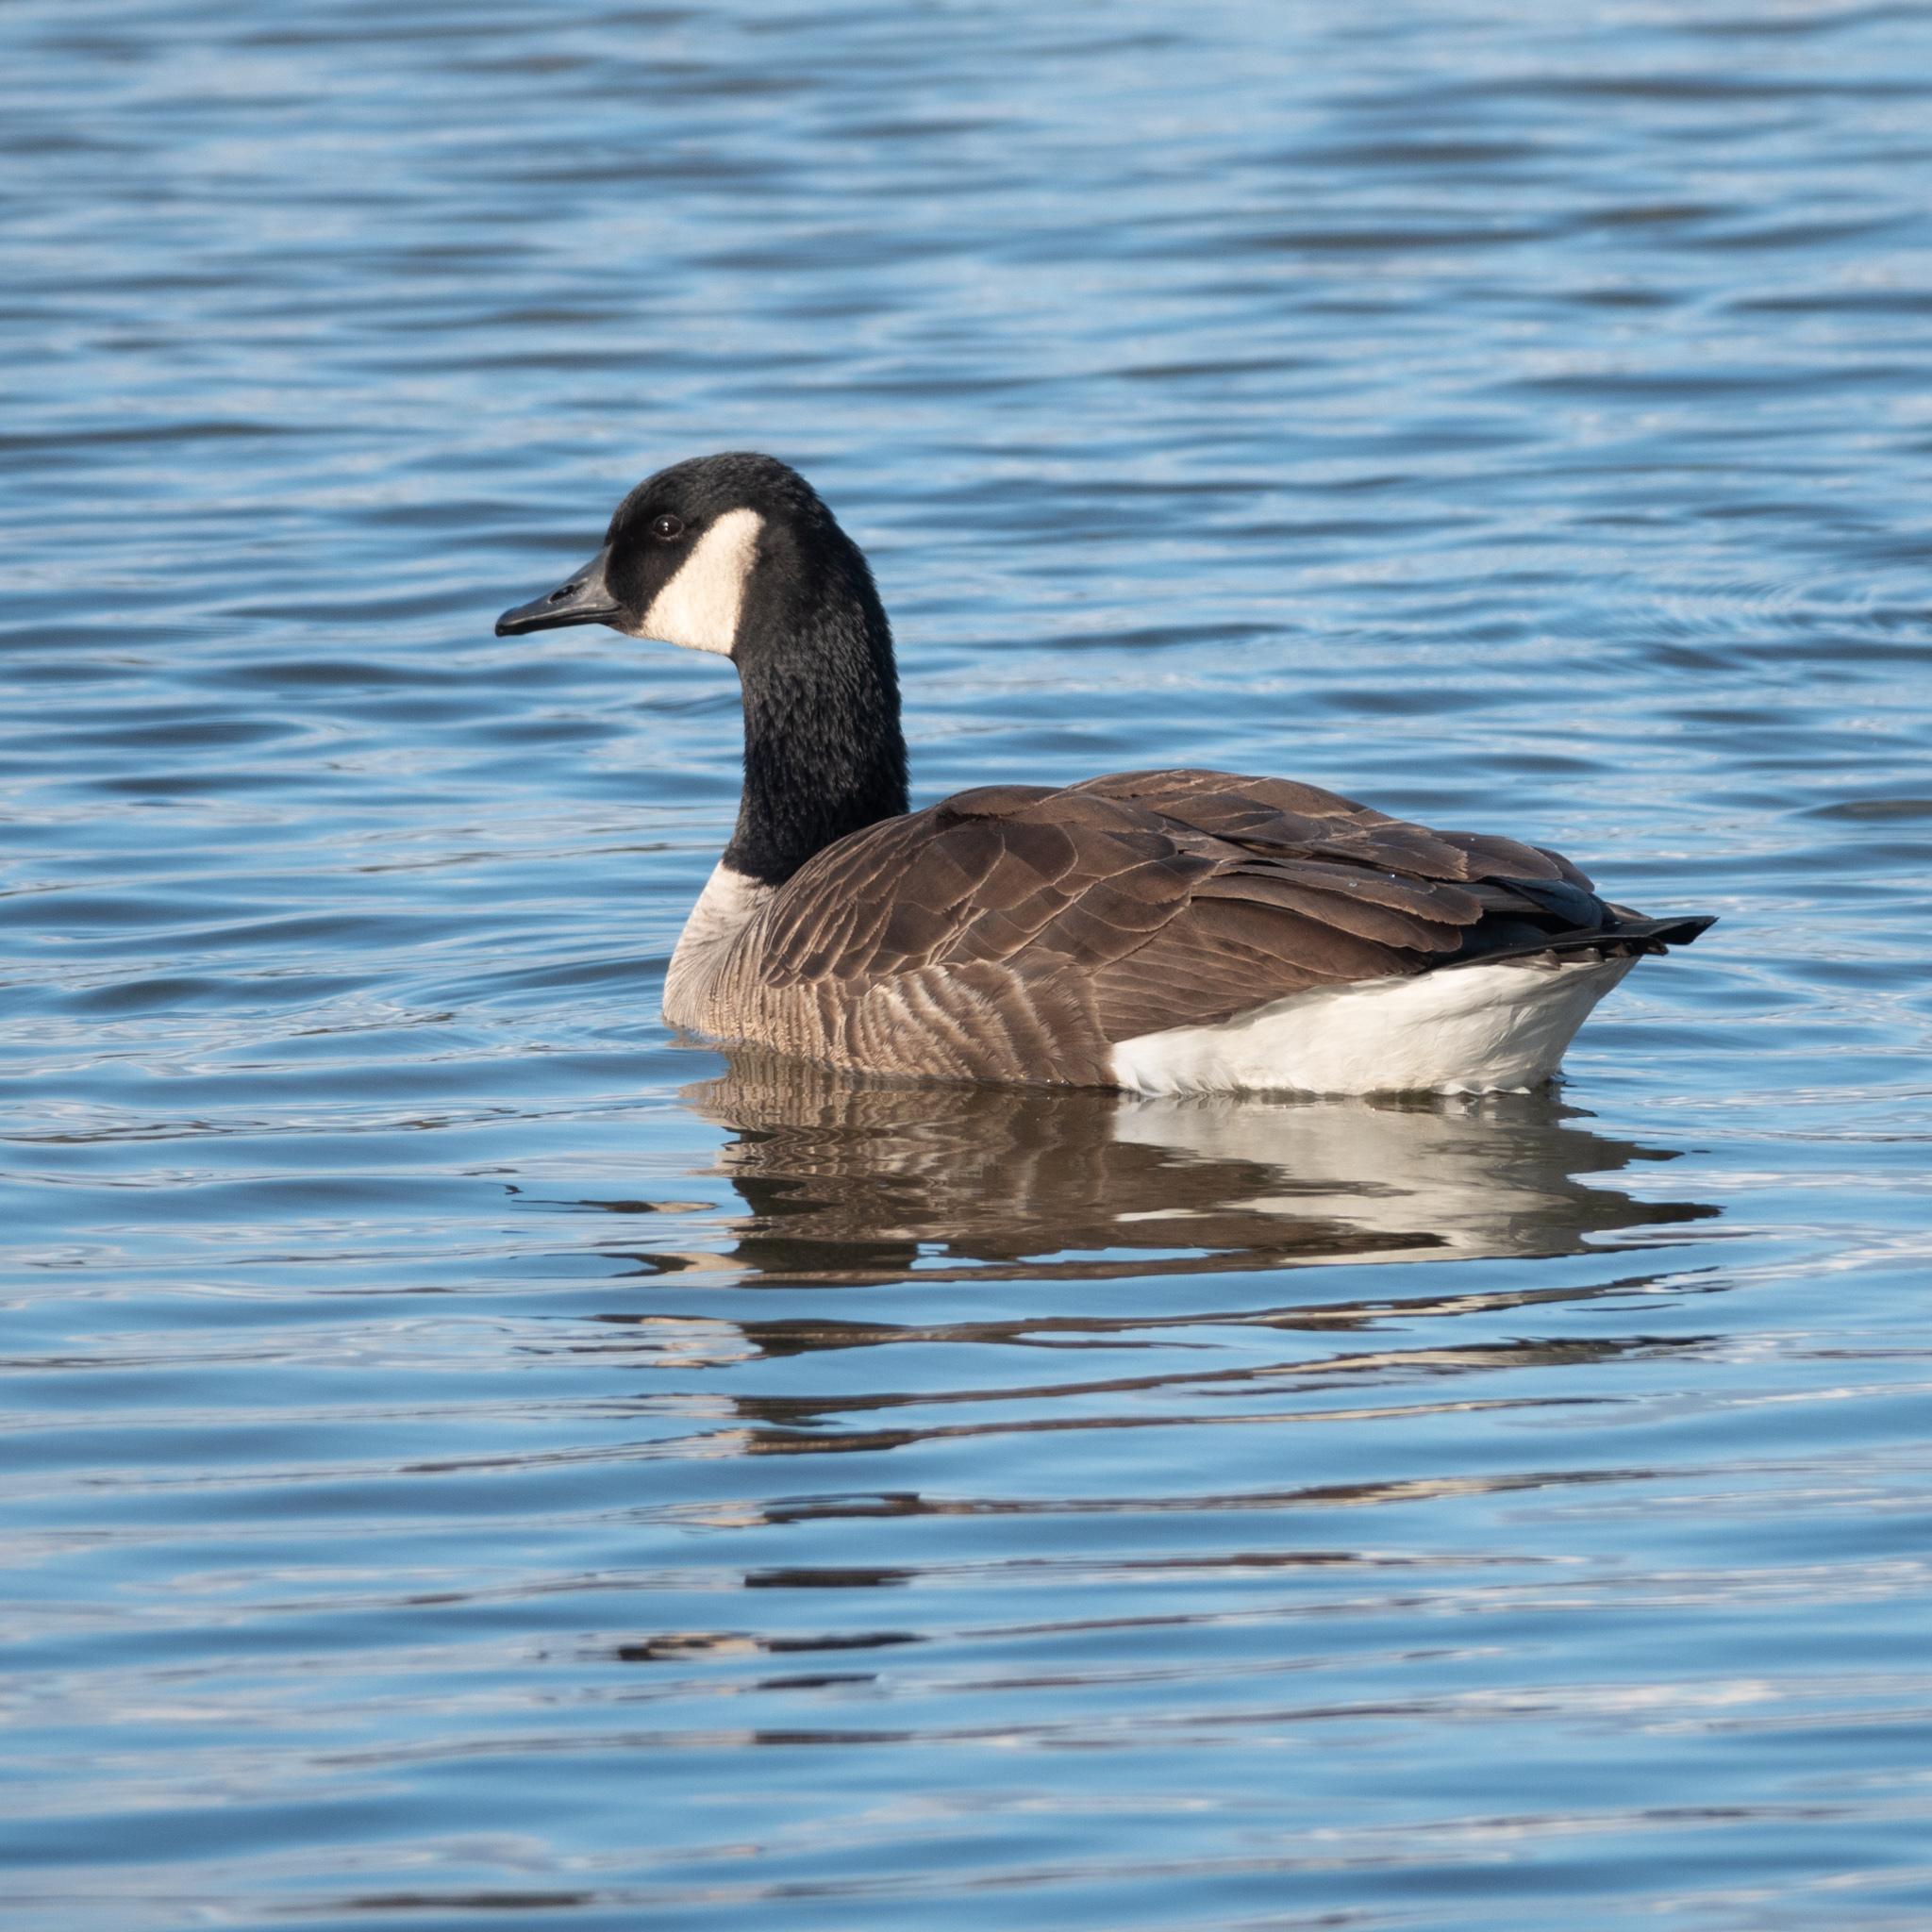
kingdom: Animalia
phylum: Chordata
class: Aves
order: Anseriformes
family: Anatidae
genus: Branta
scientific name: Branta canadensis
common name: Canada goose
